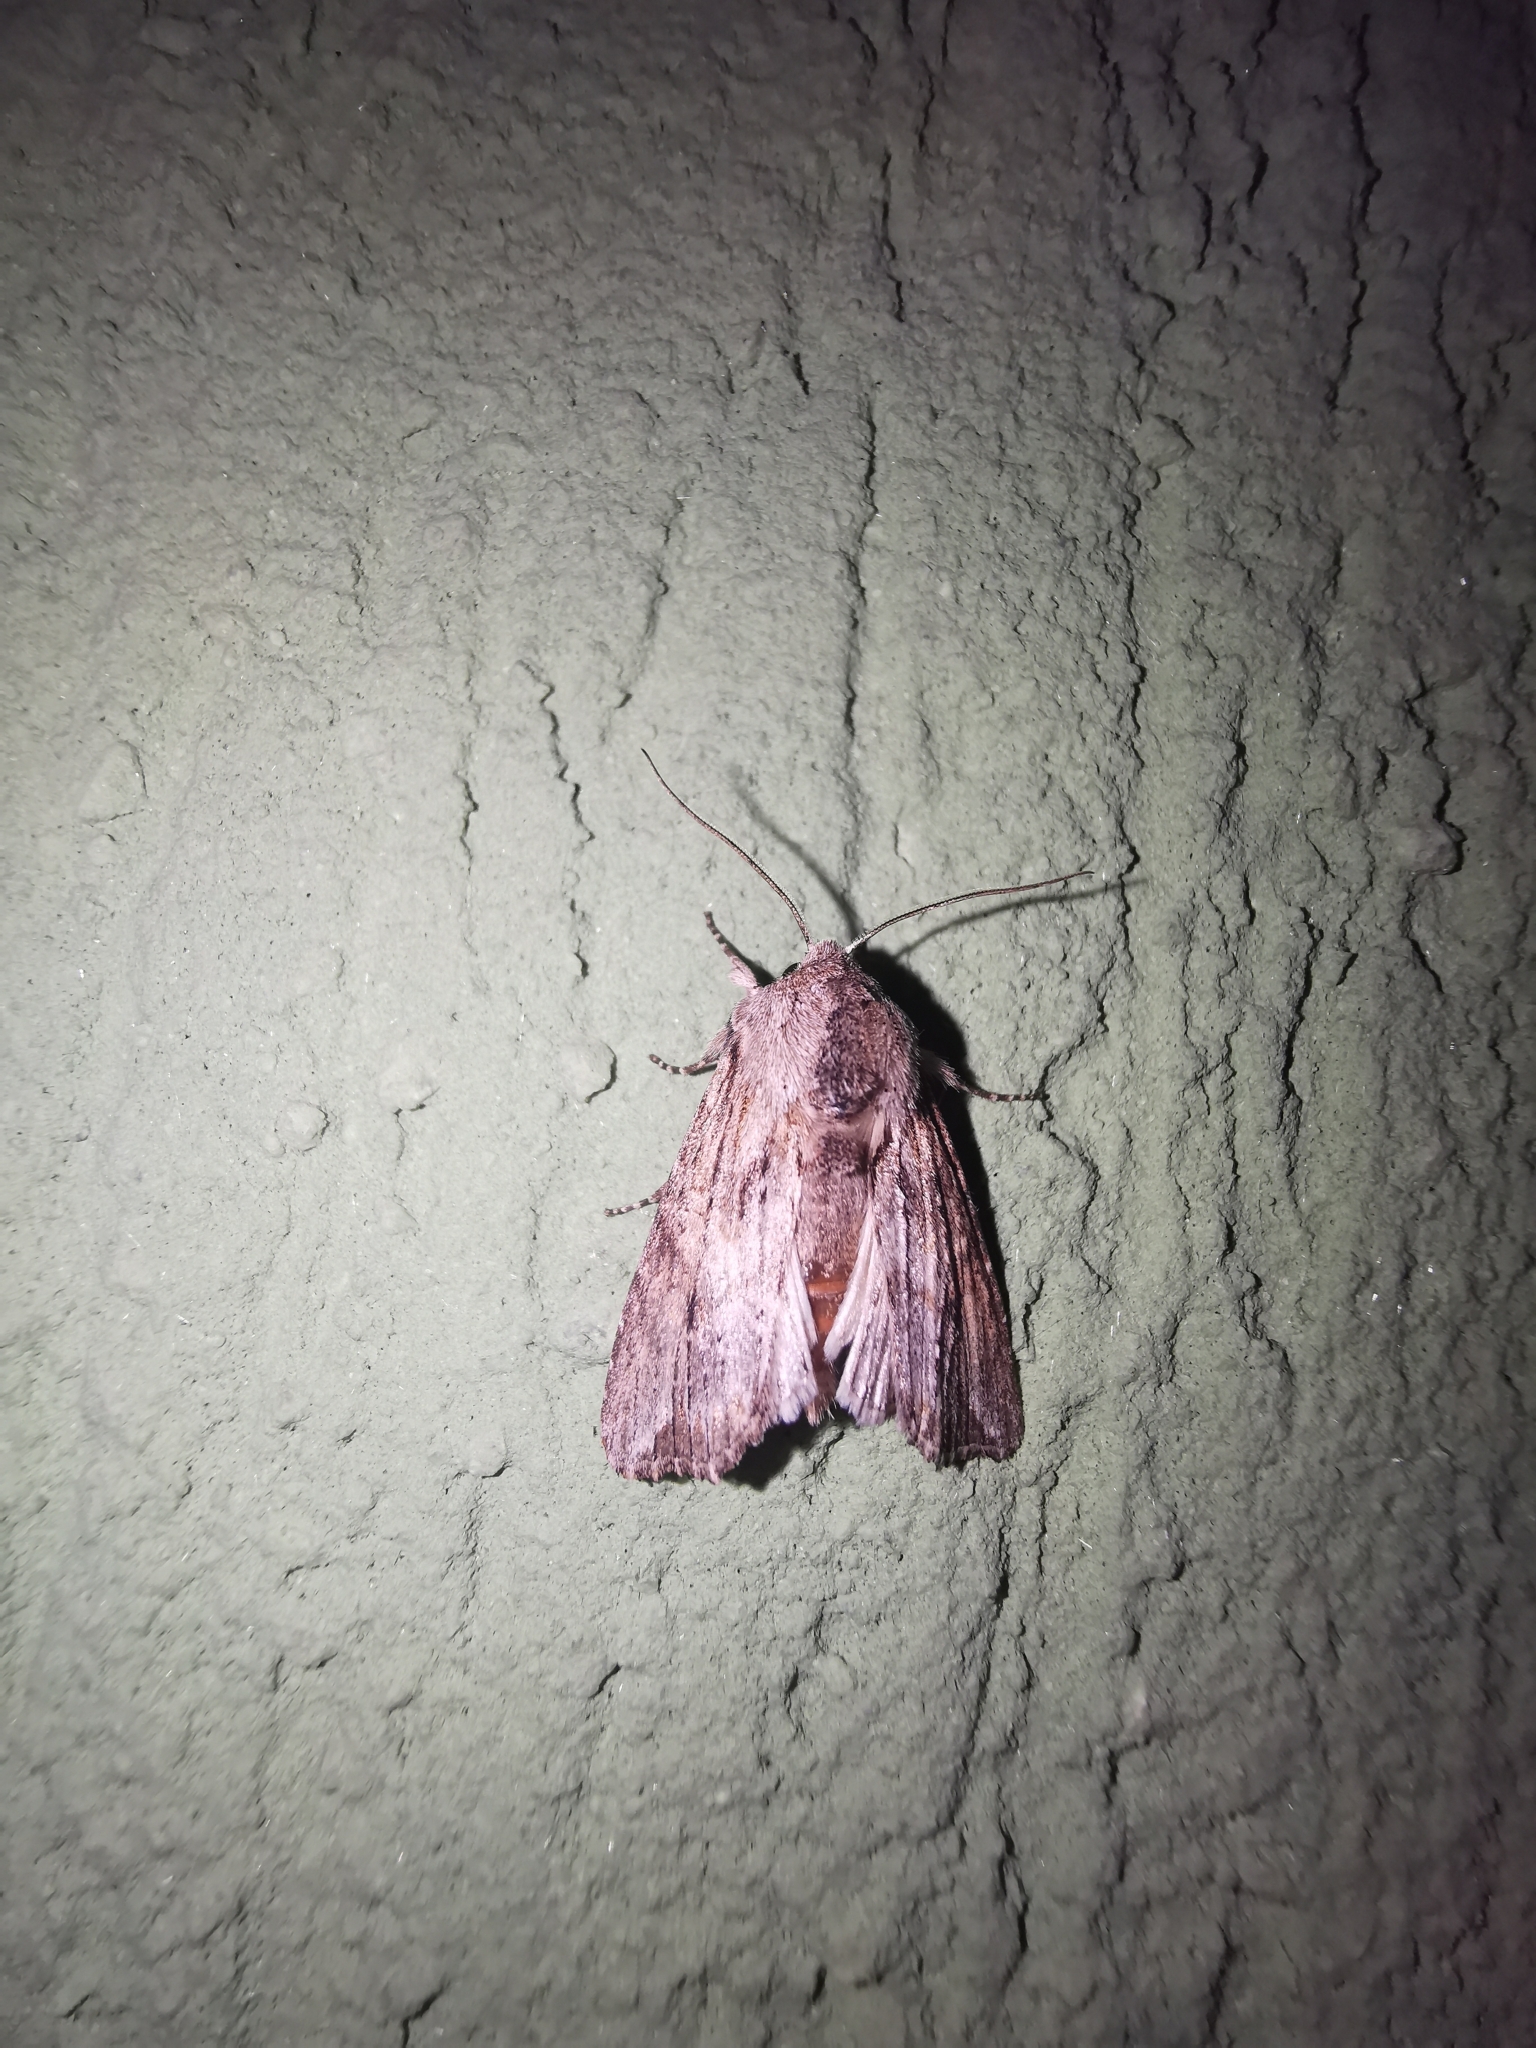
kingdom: Animalia
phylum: Arthropoda
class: Insecta
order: Lepidoptera
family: Noctuidae
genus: Egira
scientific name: Egira conspicillaris
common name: Silver cloud
